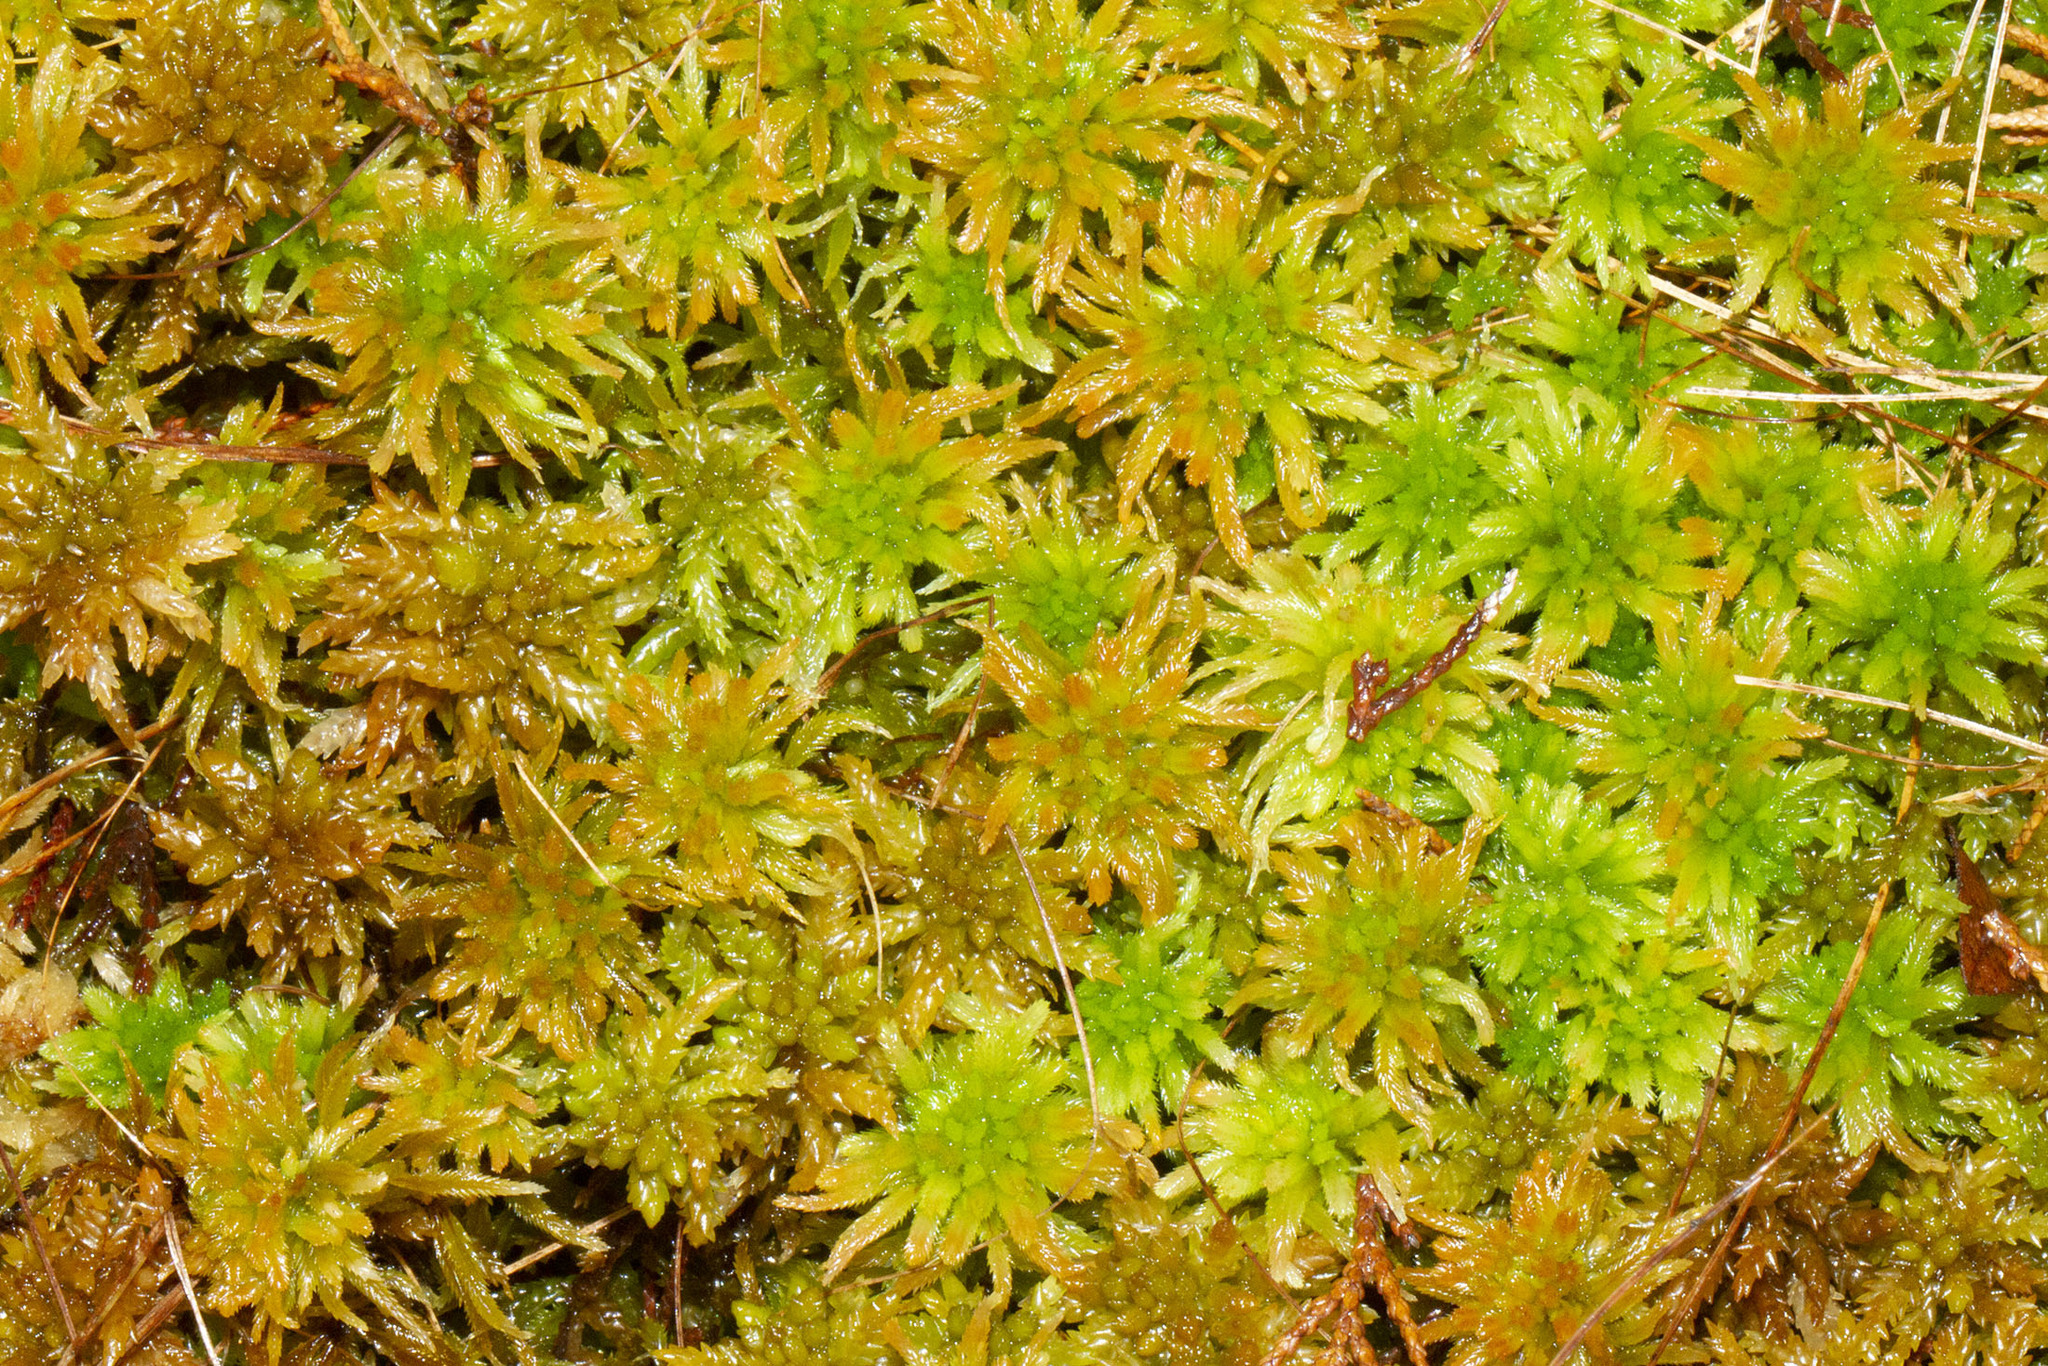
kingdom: Plantae
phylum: Bryophyta
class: Sphagnopsida
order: Sphagnales
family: Sphagnaceae
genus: Sphagnum
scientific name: Sphagnum pulchrum
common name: Beautiful peat moss
